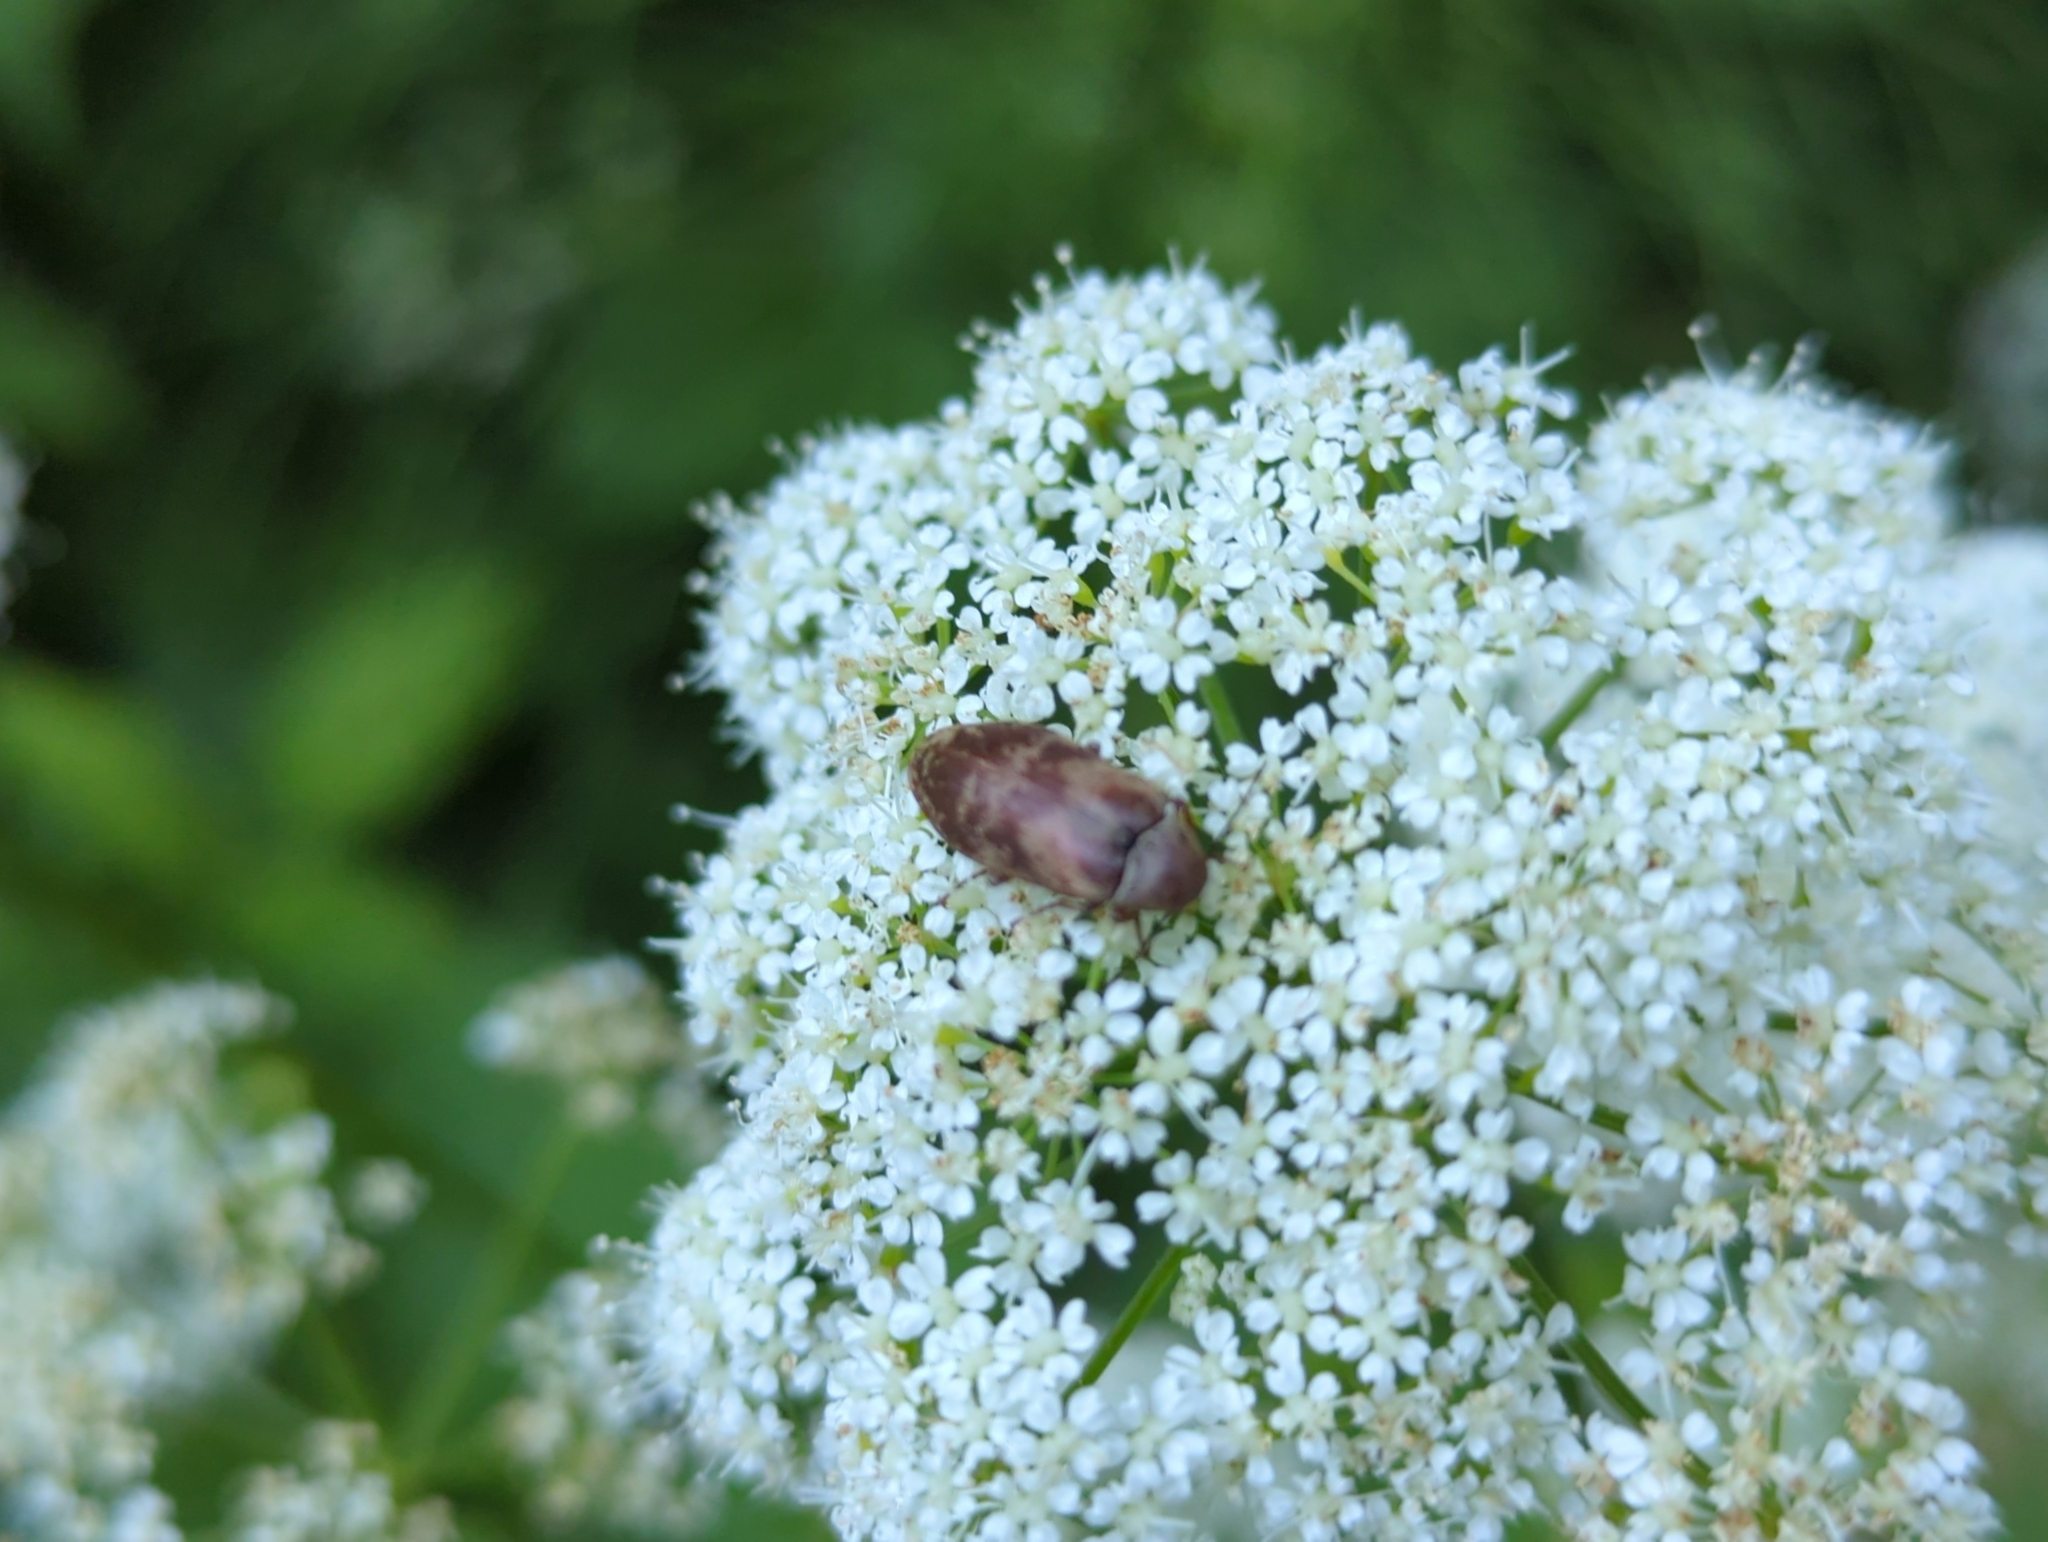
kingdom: Animalia
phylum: Arthropoda
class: Insecta
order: Coleoptera
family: Ptilodactylidae
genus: Araeopidius
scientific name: Araeopidius monachus
